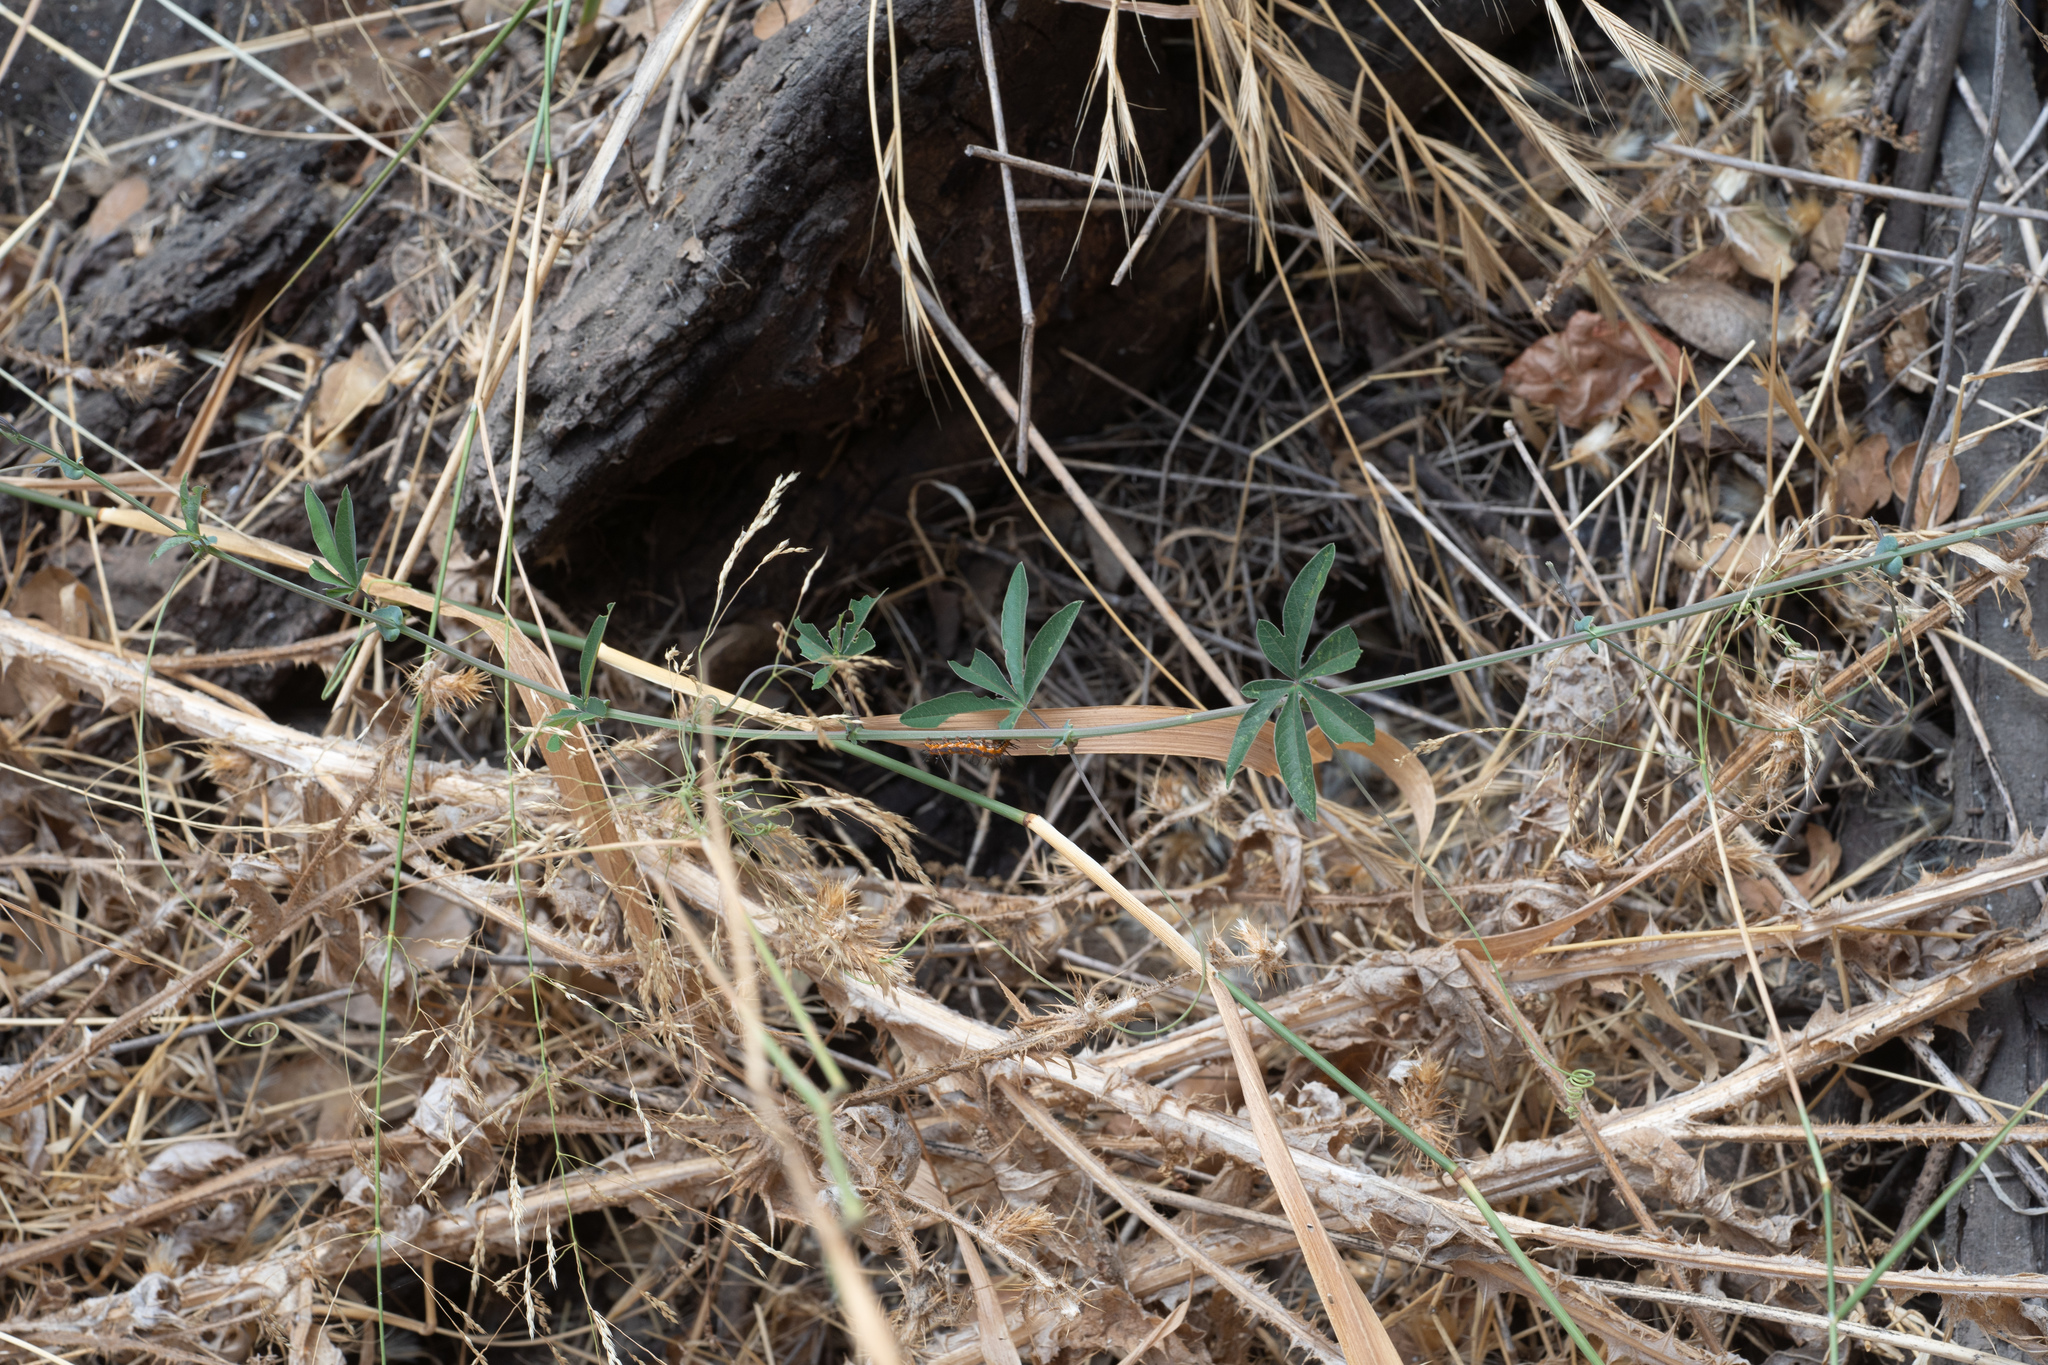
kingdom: Plantae
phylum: Tracheophyta
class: Magnoliopsida
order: Malpighiales
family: Passifloraceae
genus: Passiflora
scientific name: Passiflora caerulea
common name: Blue passionflower
